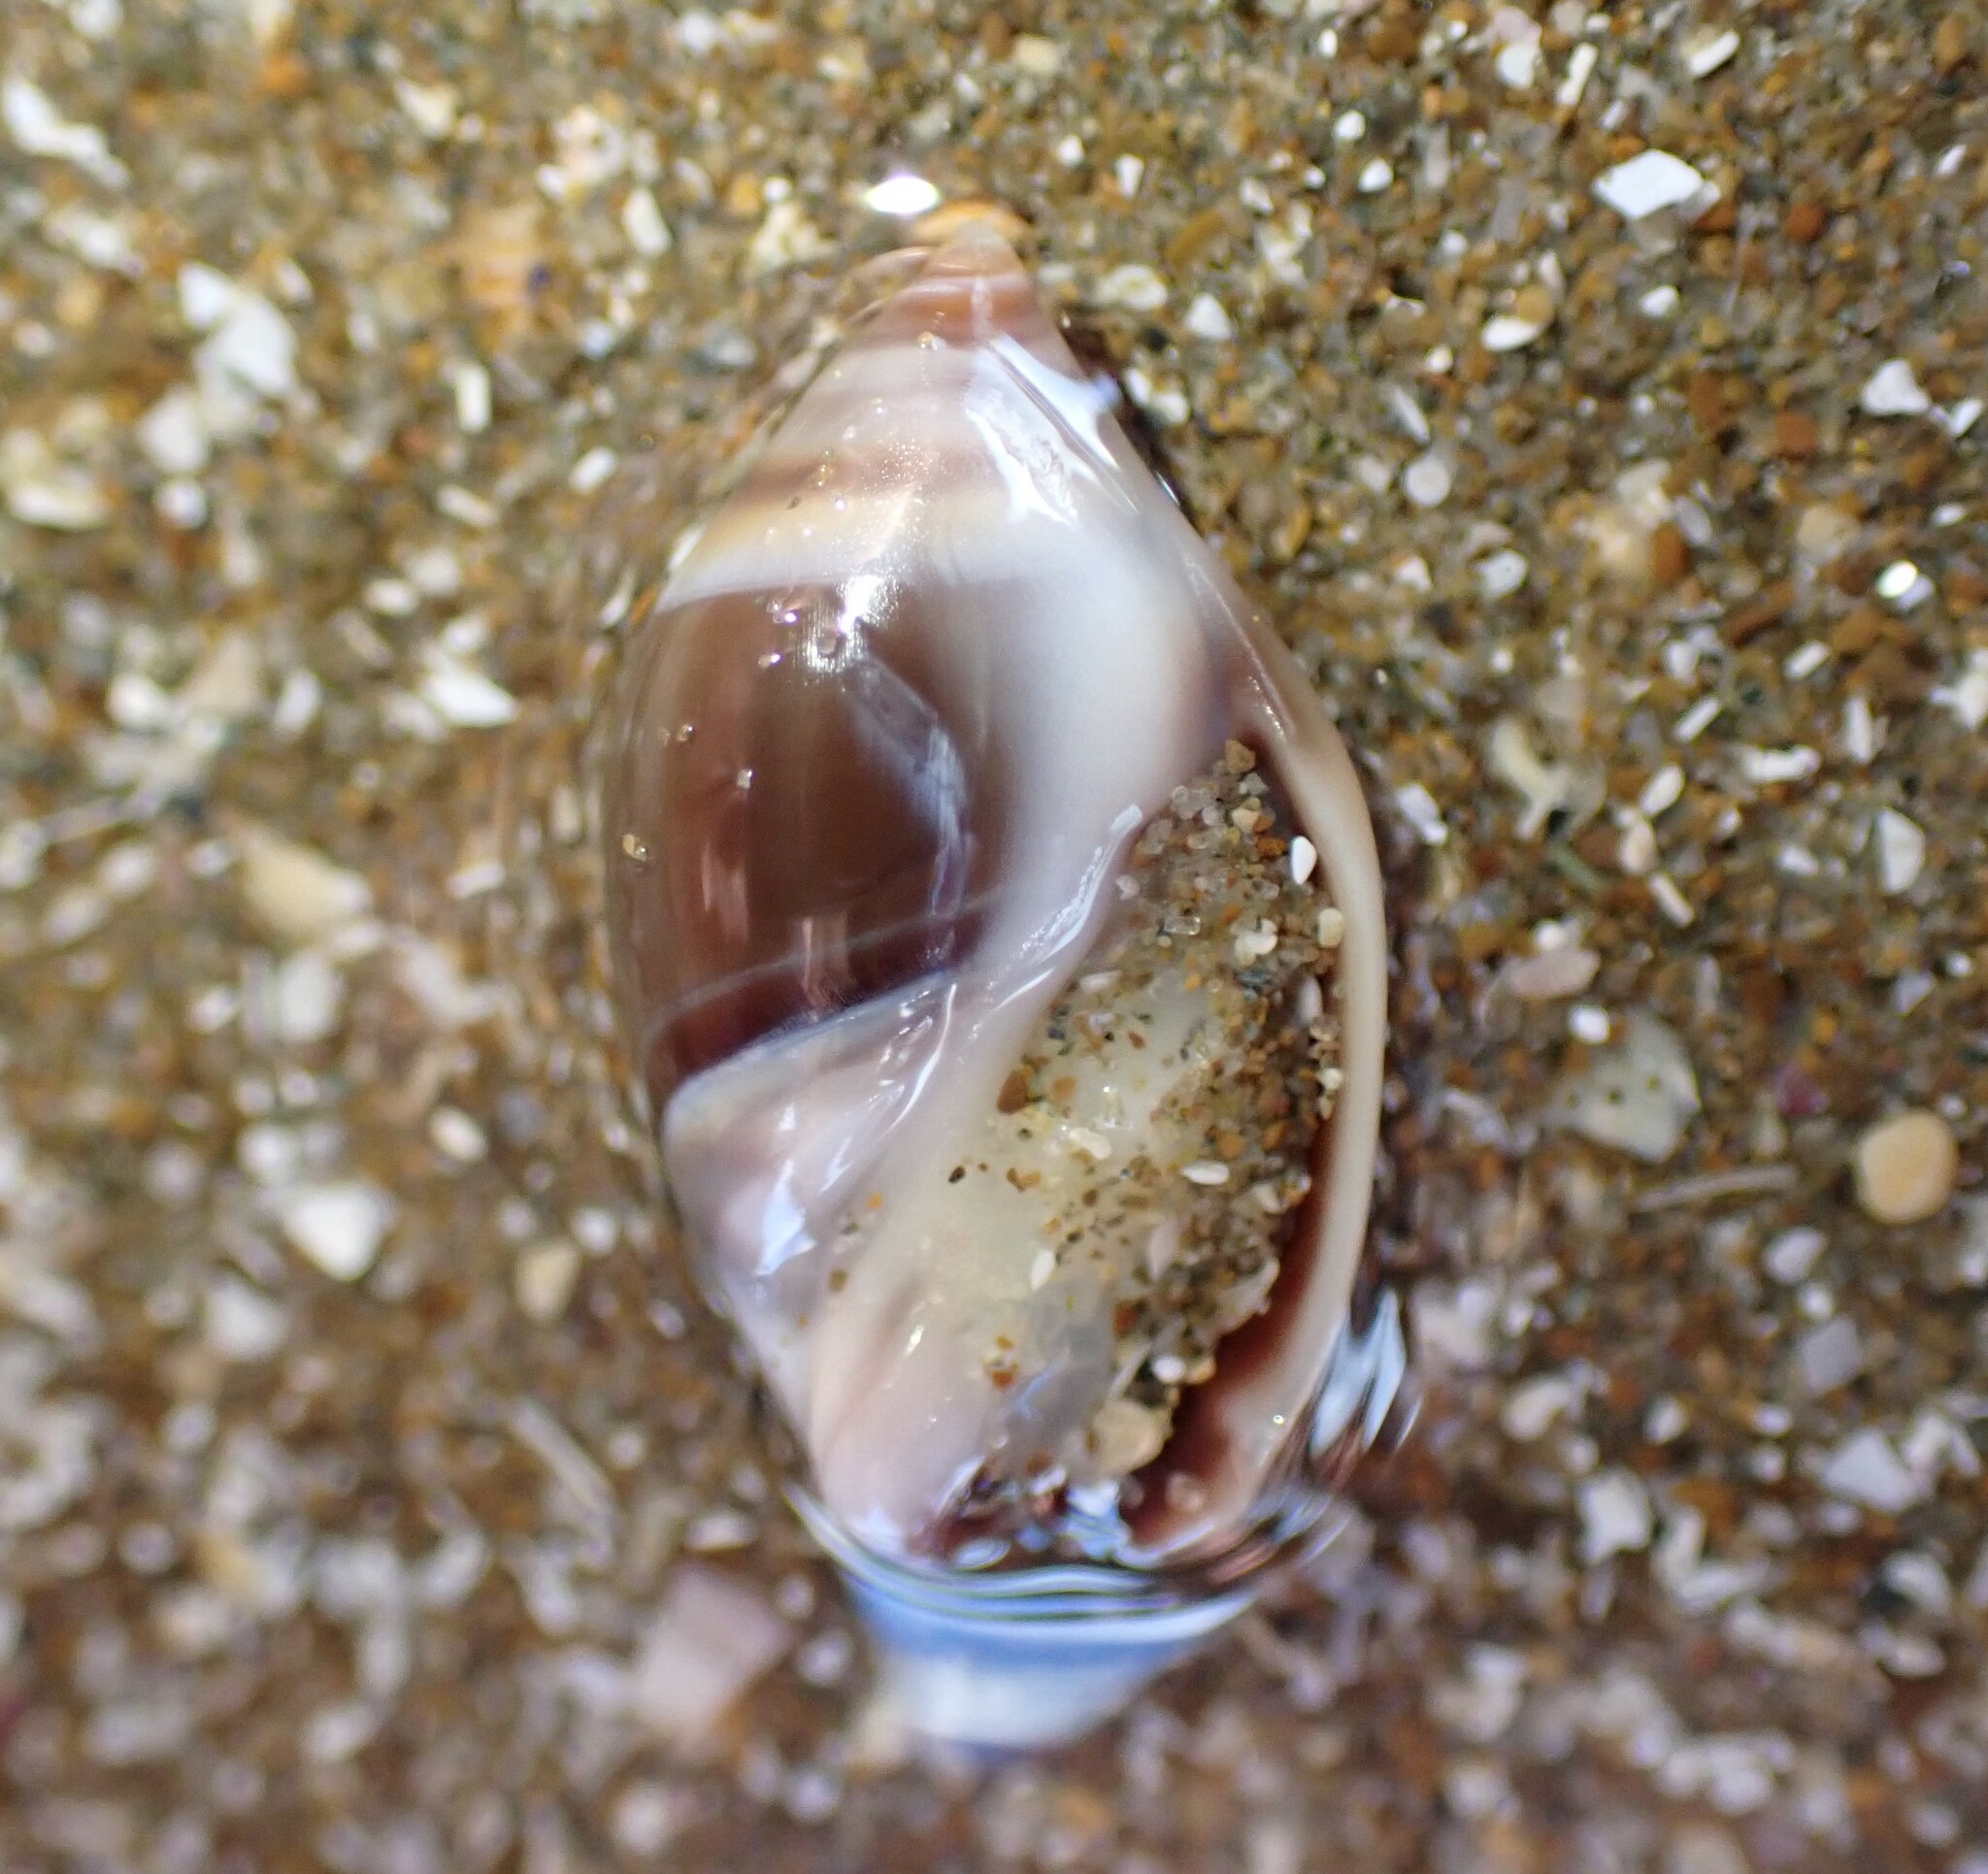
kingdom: Animalia
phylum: Mollusca
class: Gastropoda
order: Neogastropoda
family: Ancillariidae
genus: Amalda
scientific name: Amalda depressa
